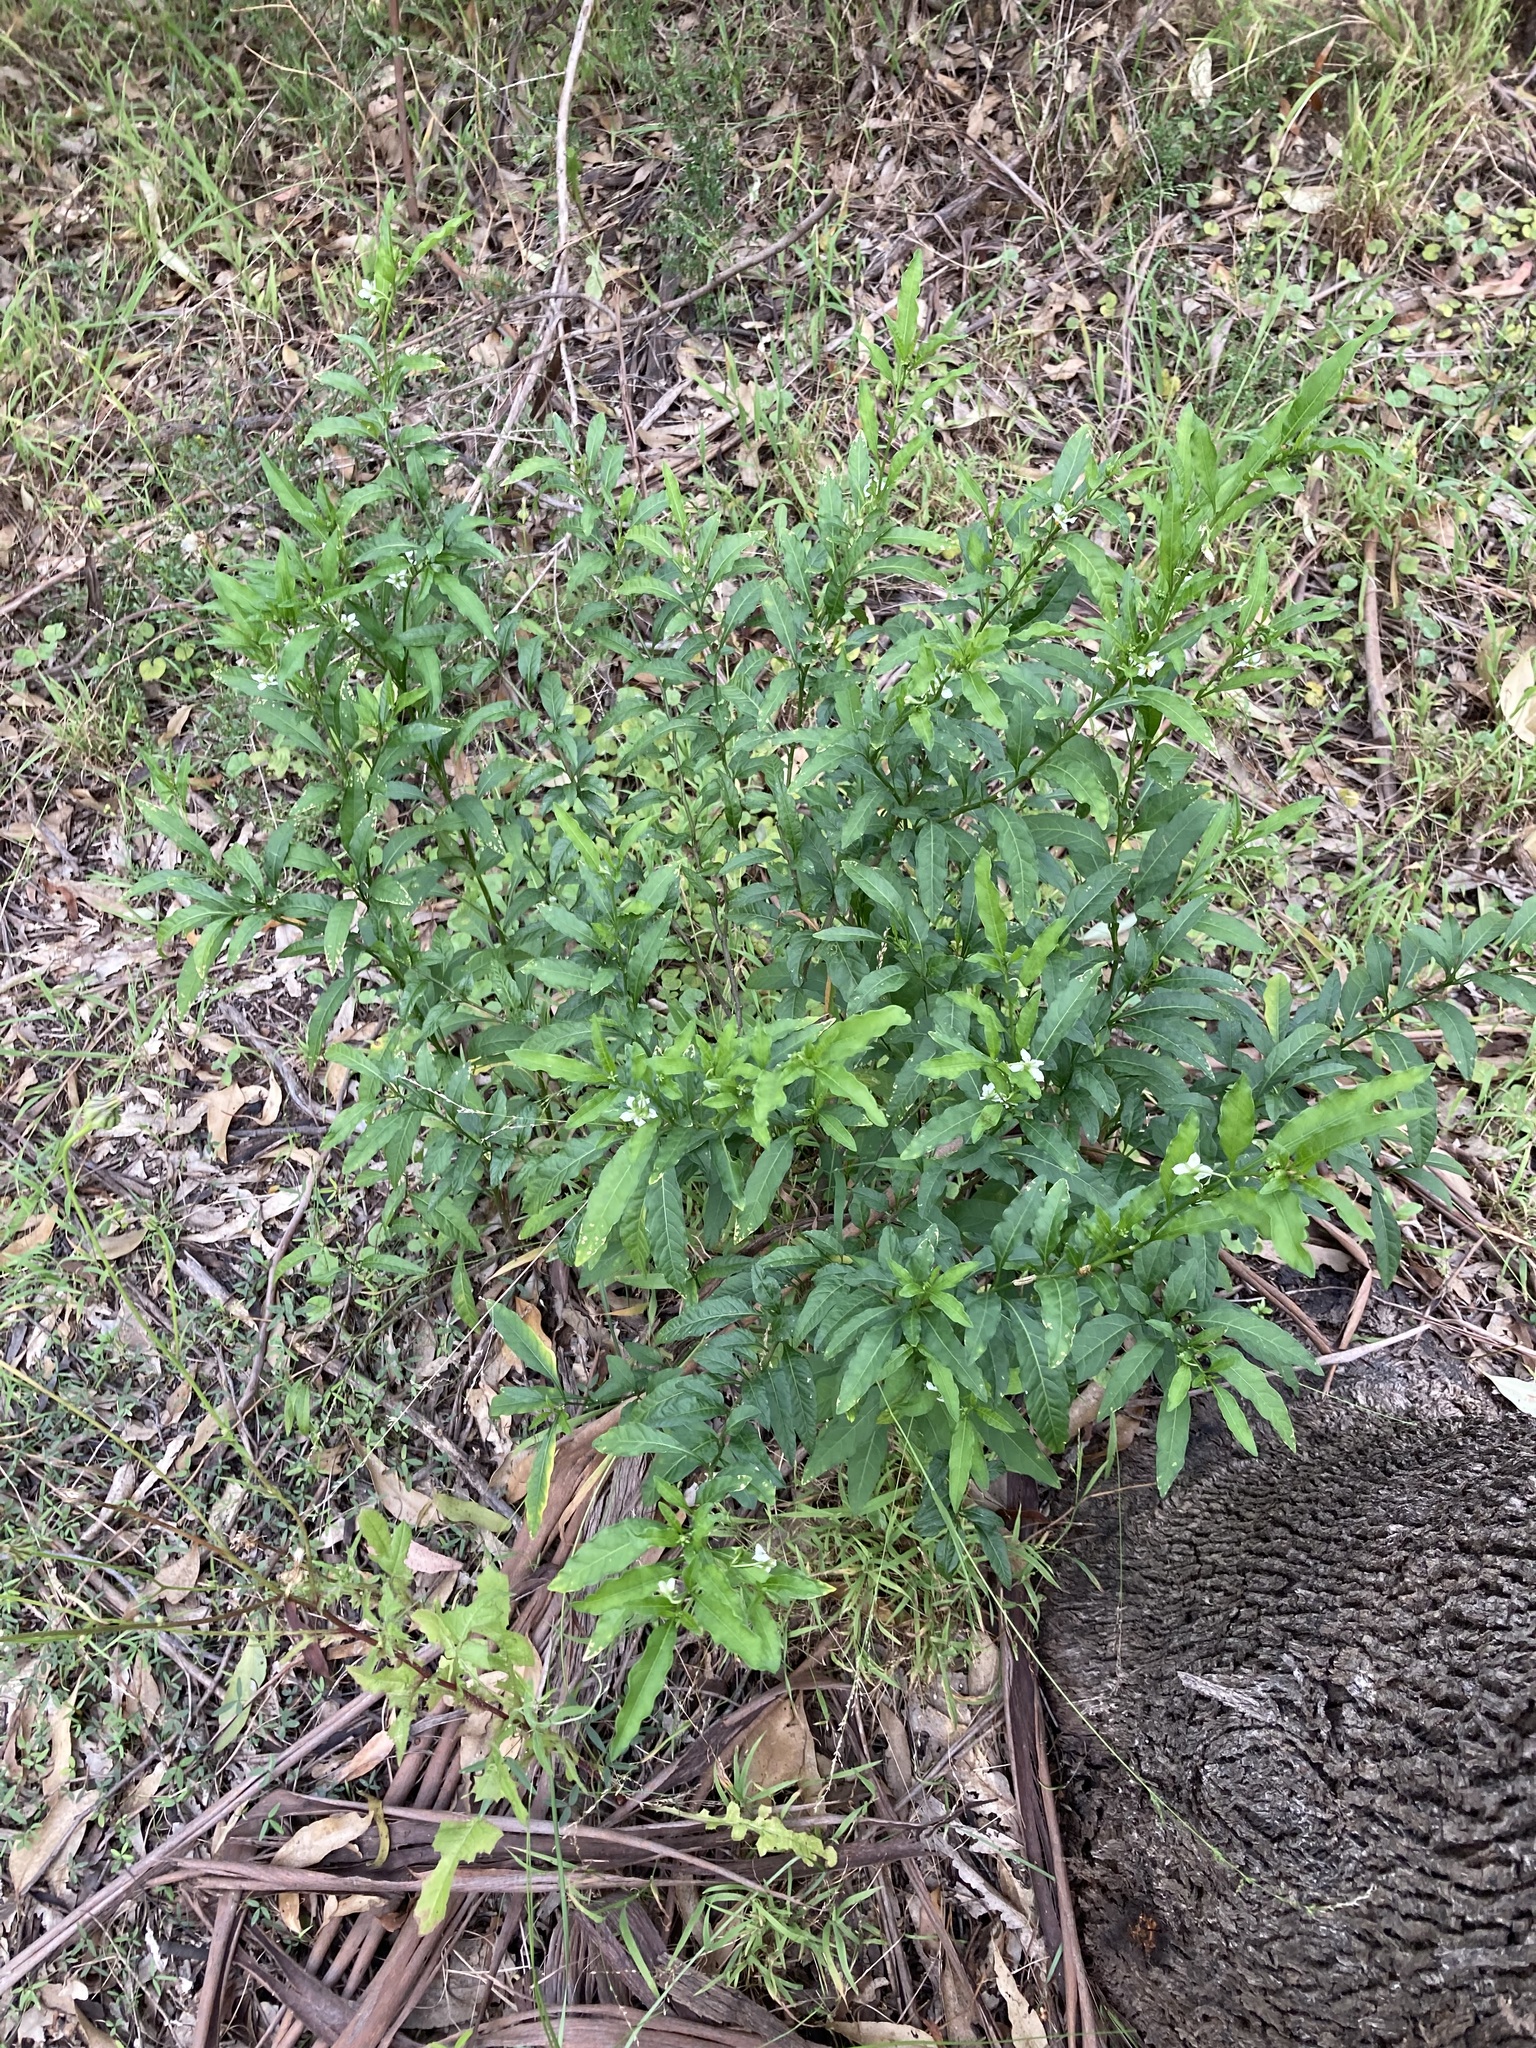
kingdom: Plantae
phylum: Tracheophyta
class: Magnoliopsida
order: Solanales
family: Solanaceae
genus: Solanum
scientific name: Solanum pseudocapsicum
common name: Jerusalem cherry
